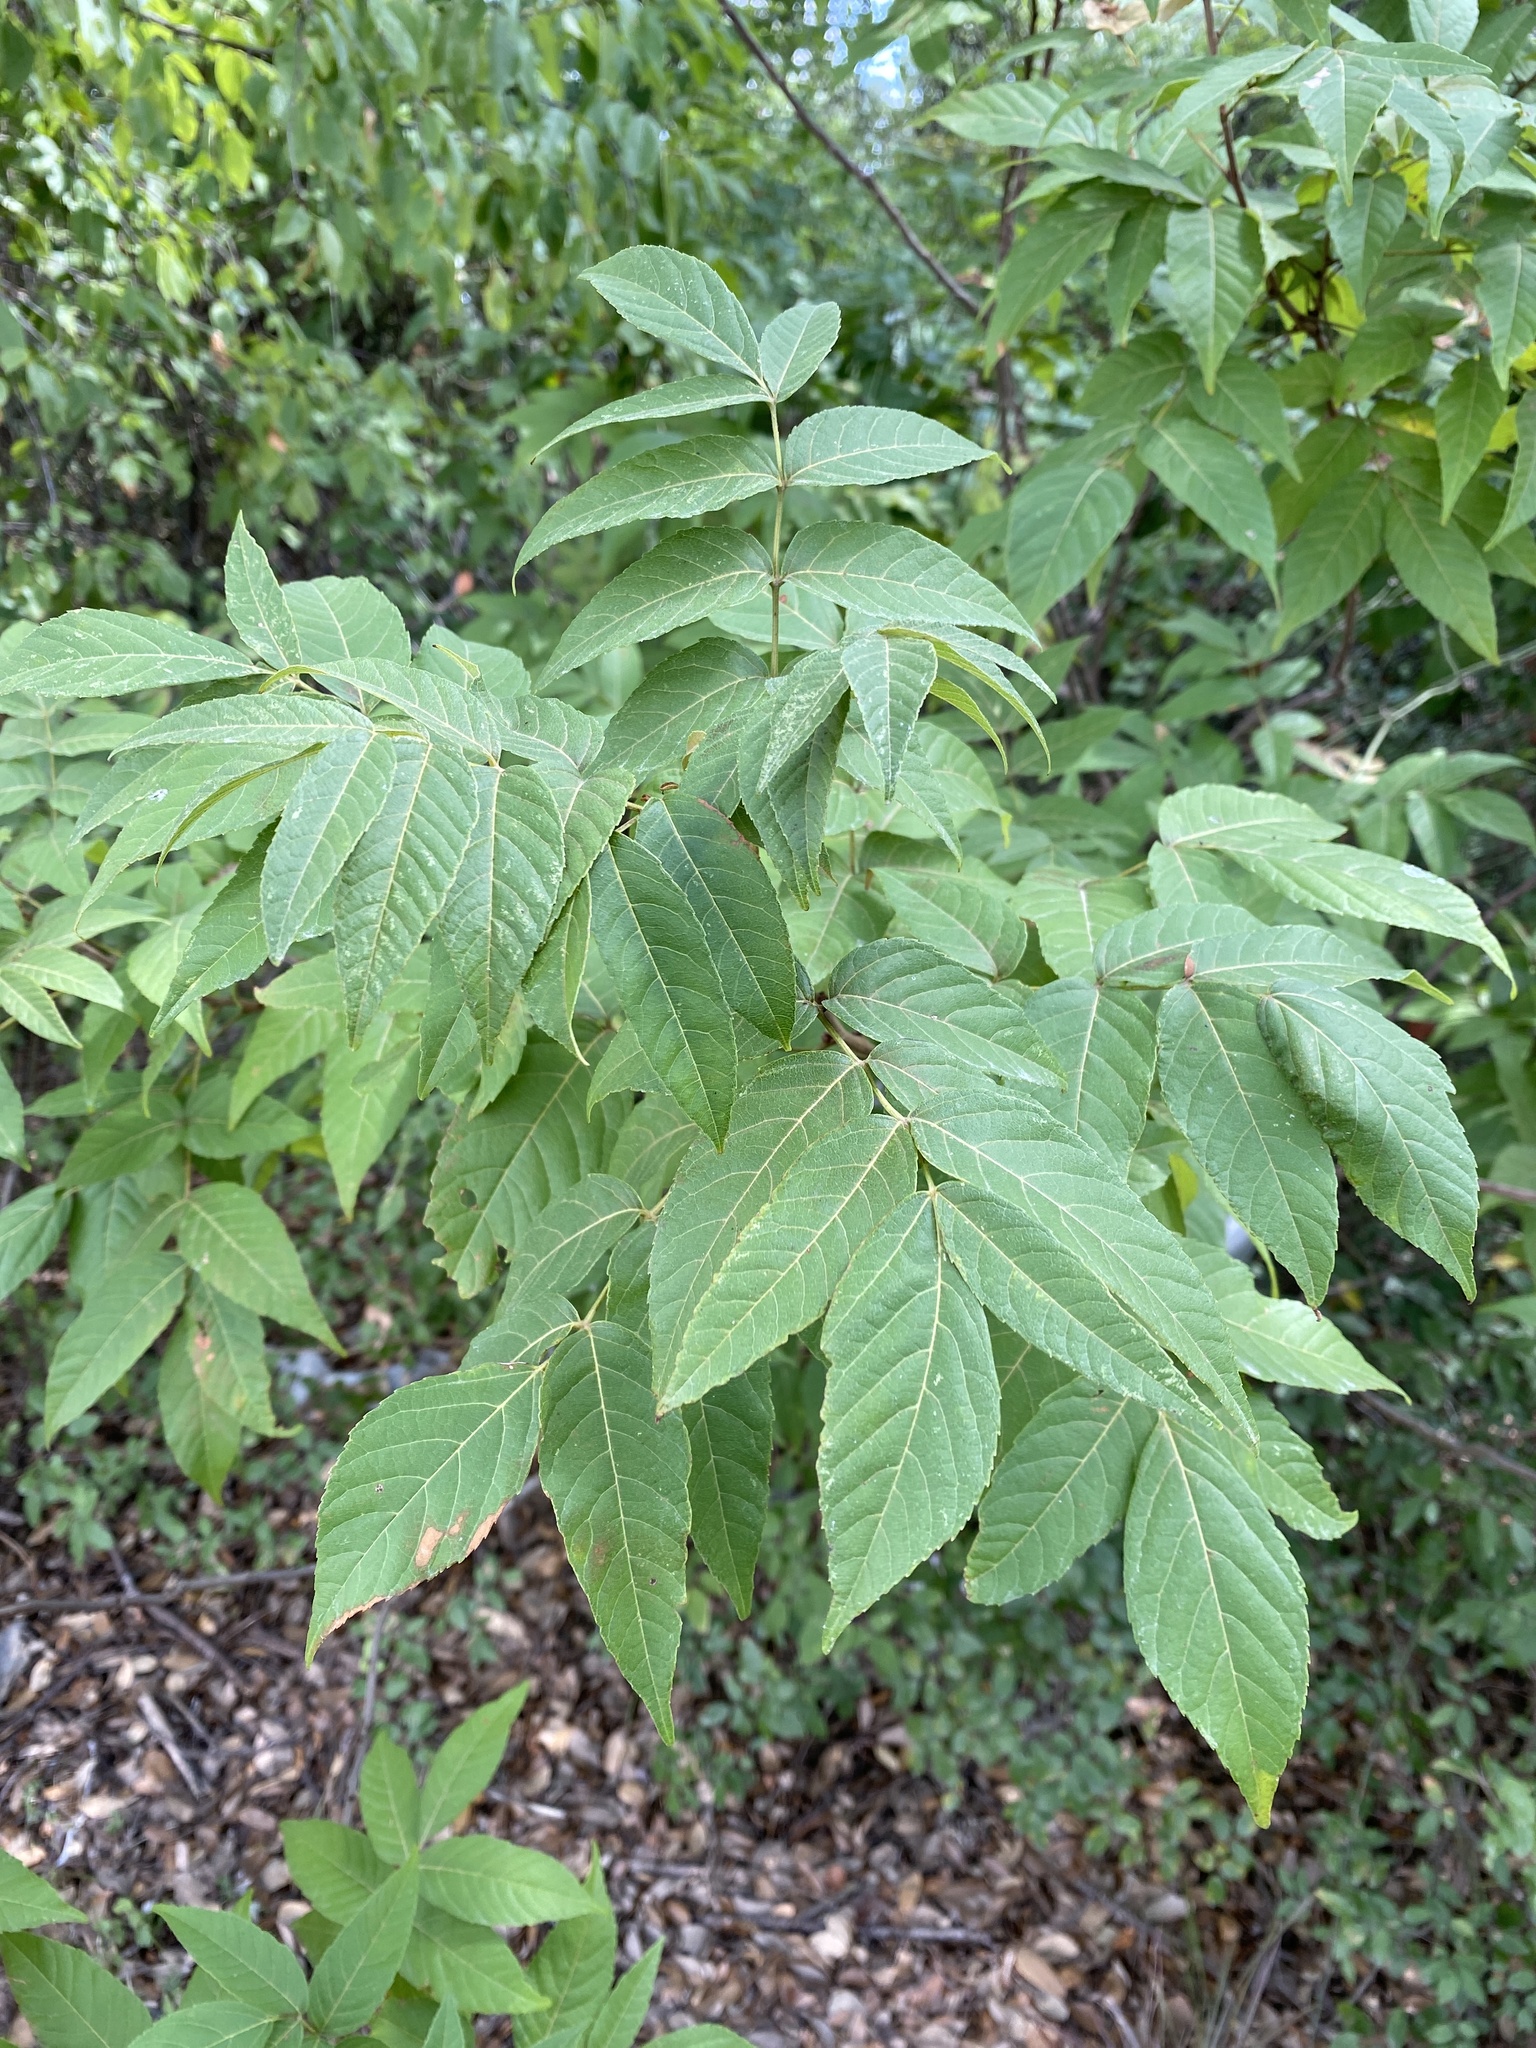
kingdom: Plantae
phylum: Tracheophyta
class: Magnoliopsida
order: Sapindales
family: Sapindaceae
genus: Ungnadia
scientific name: Ungnadia speciosa
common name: Texas-buckeye
